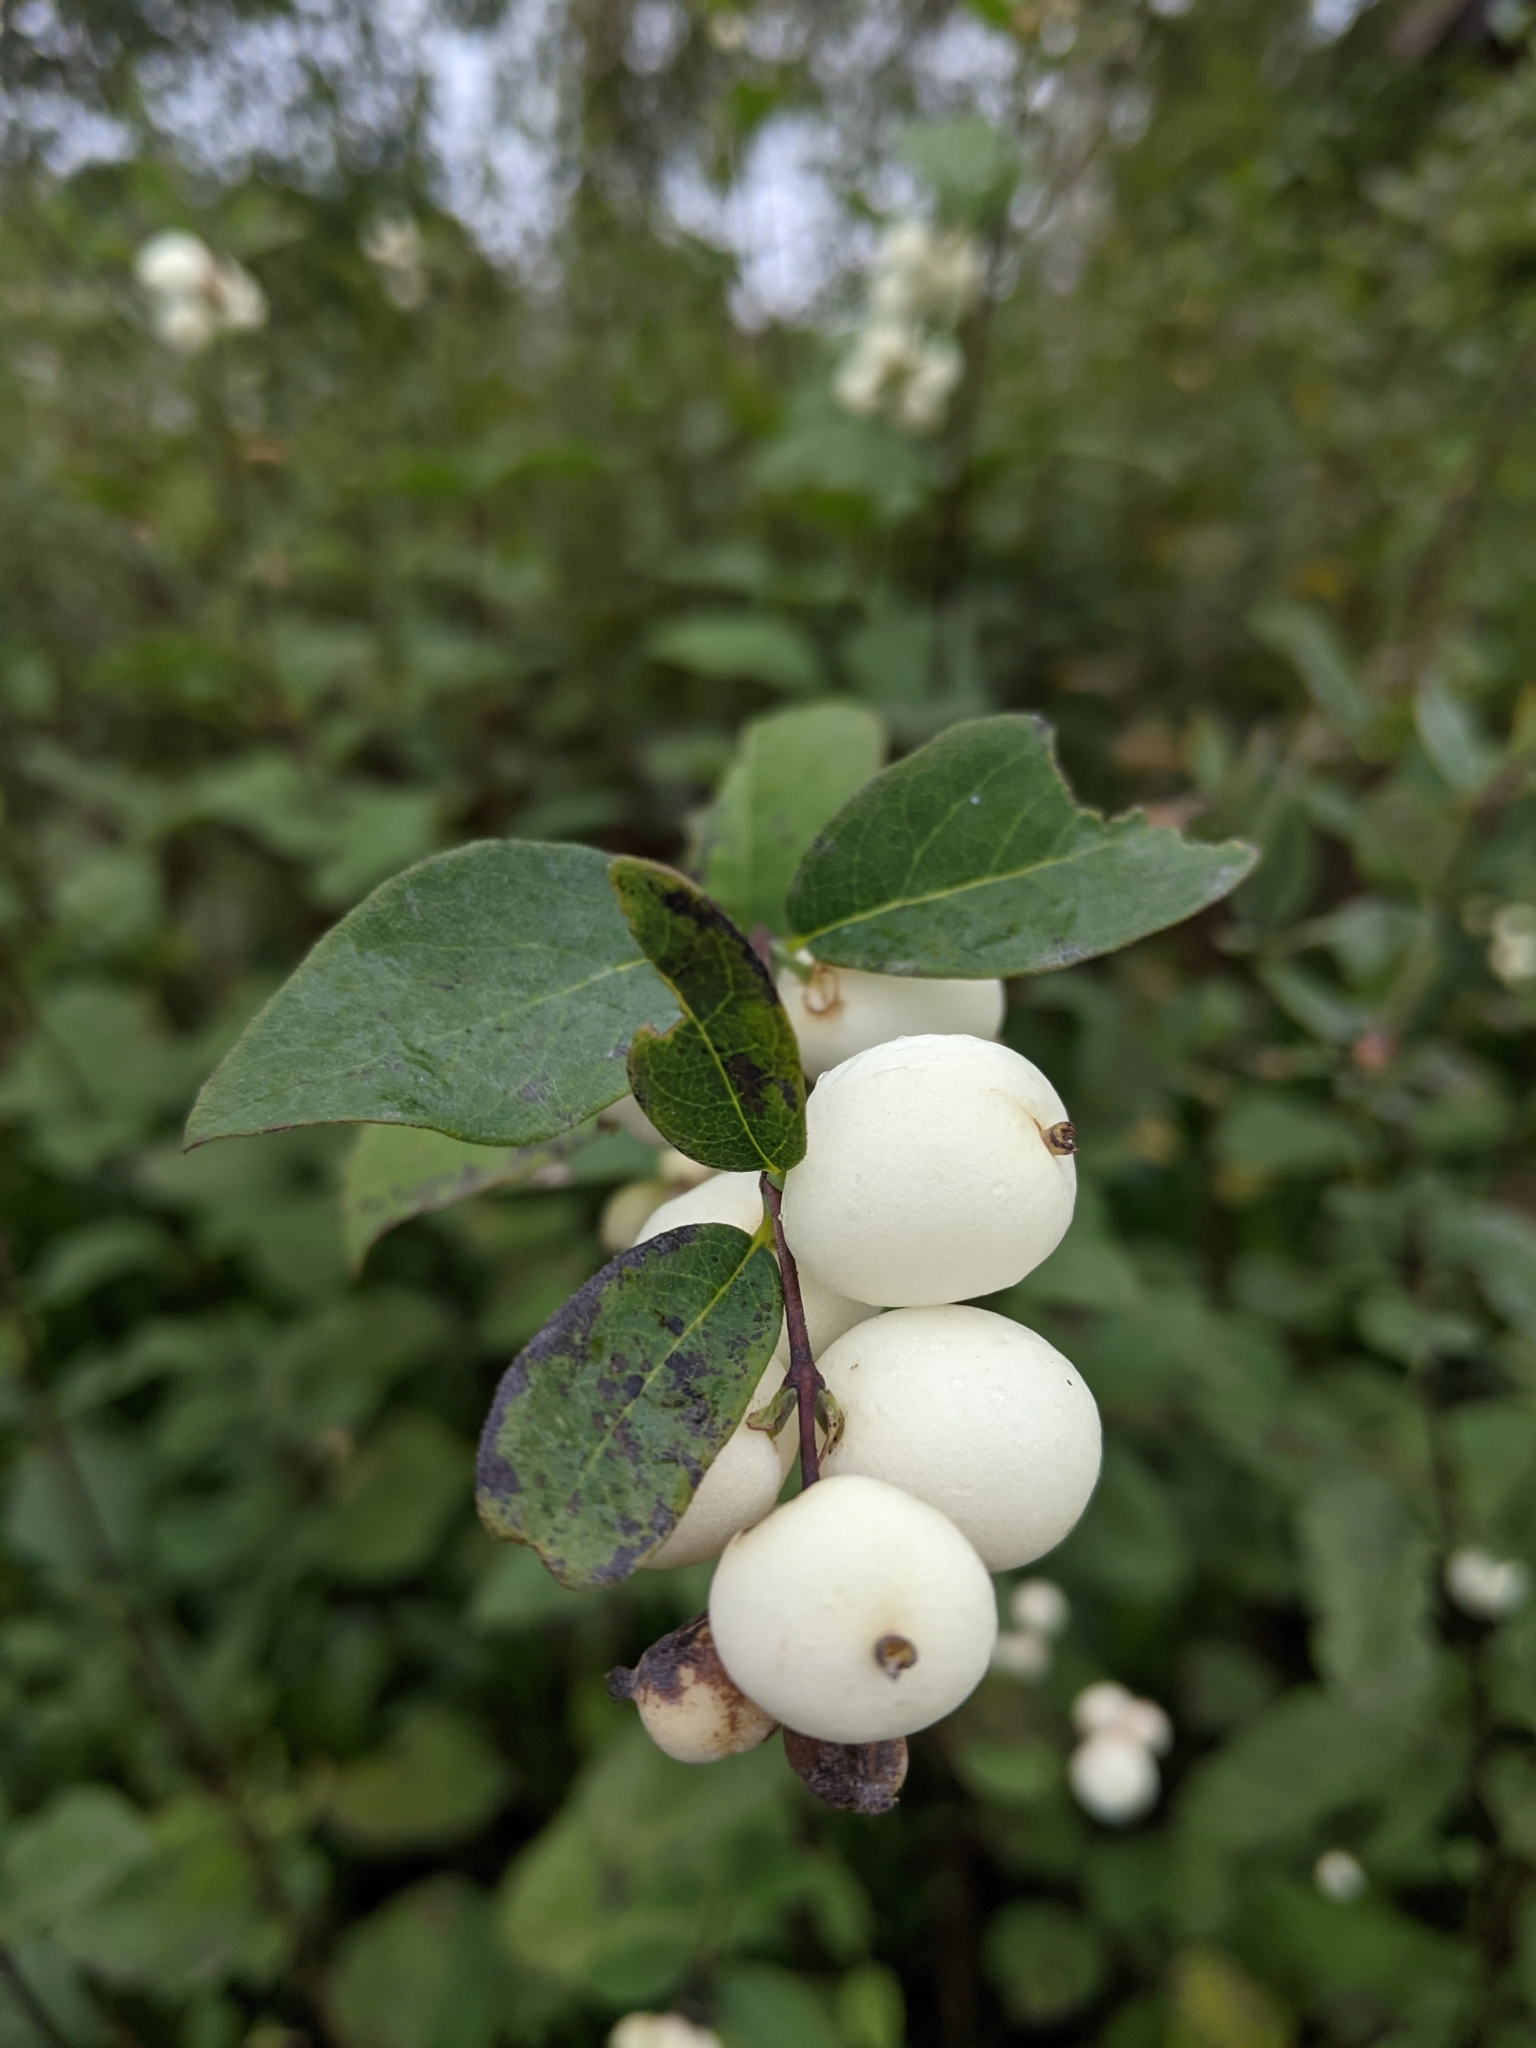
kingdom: Plantae
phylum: Tracheophyta
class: Magnoliopsida
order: Dipsacales
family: Caprifoliaceae
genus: Symphoricarpos
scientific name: Symphoricarpos albus
